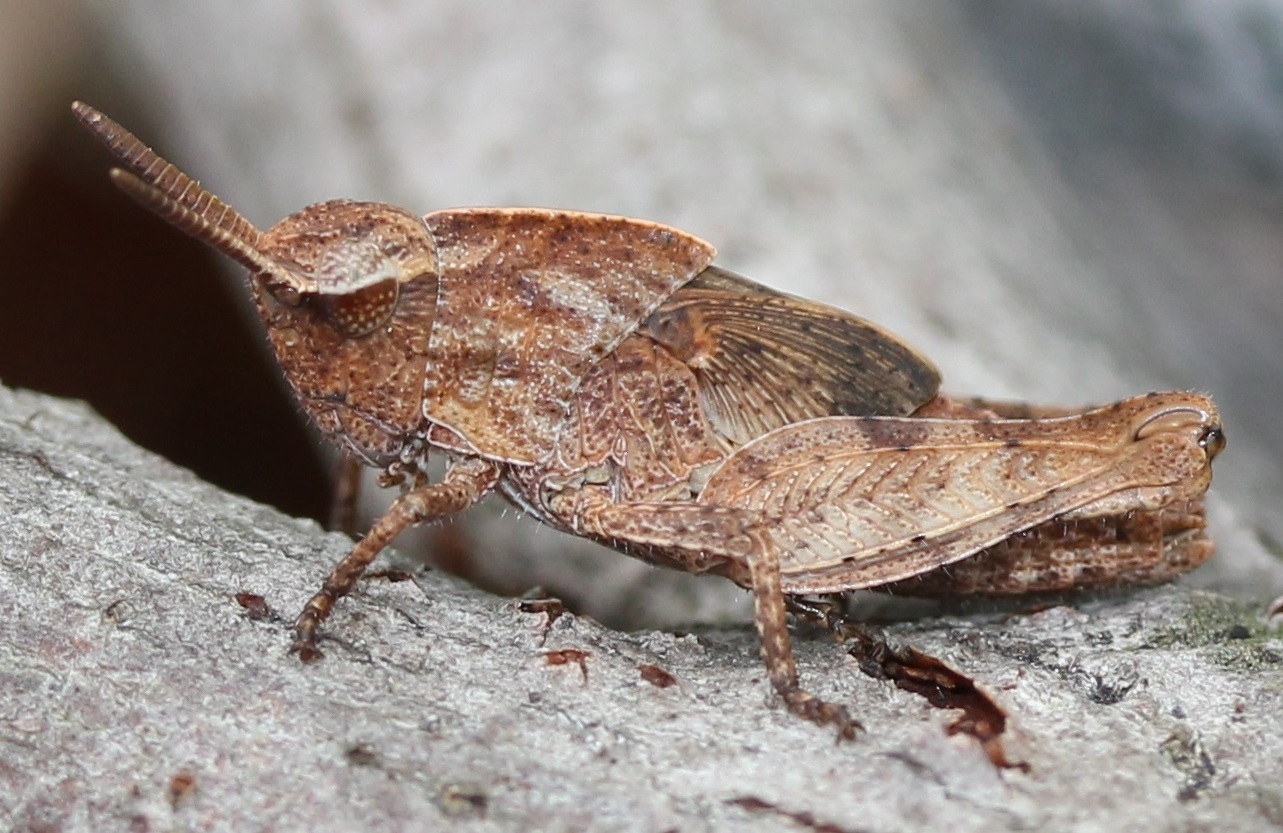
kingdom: Animalia
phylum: Arthropoda
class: Insecta
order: Orthoptera
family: Acrididae
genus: Chortophaga
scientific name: Chortophaga viridifasciata
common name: Green-striped grasshopper
